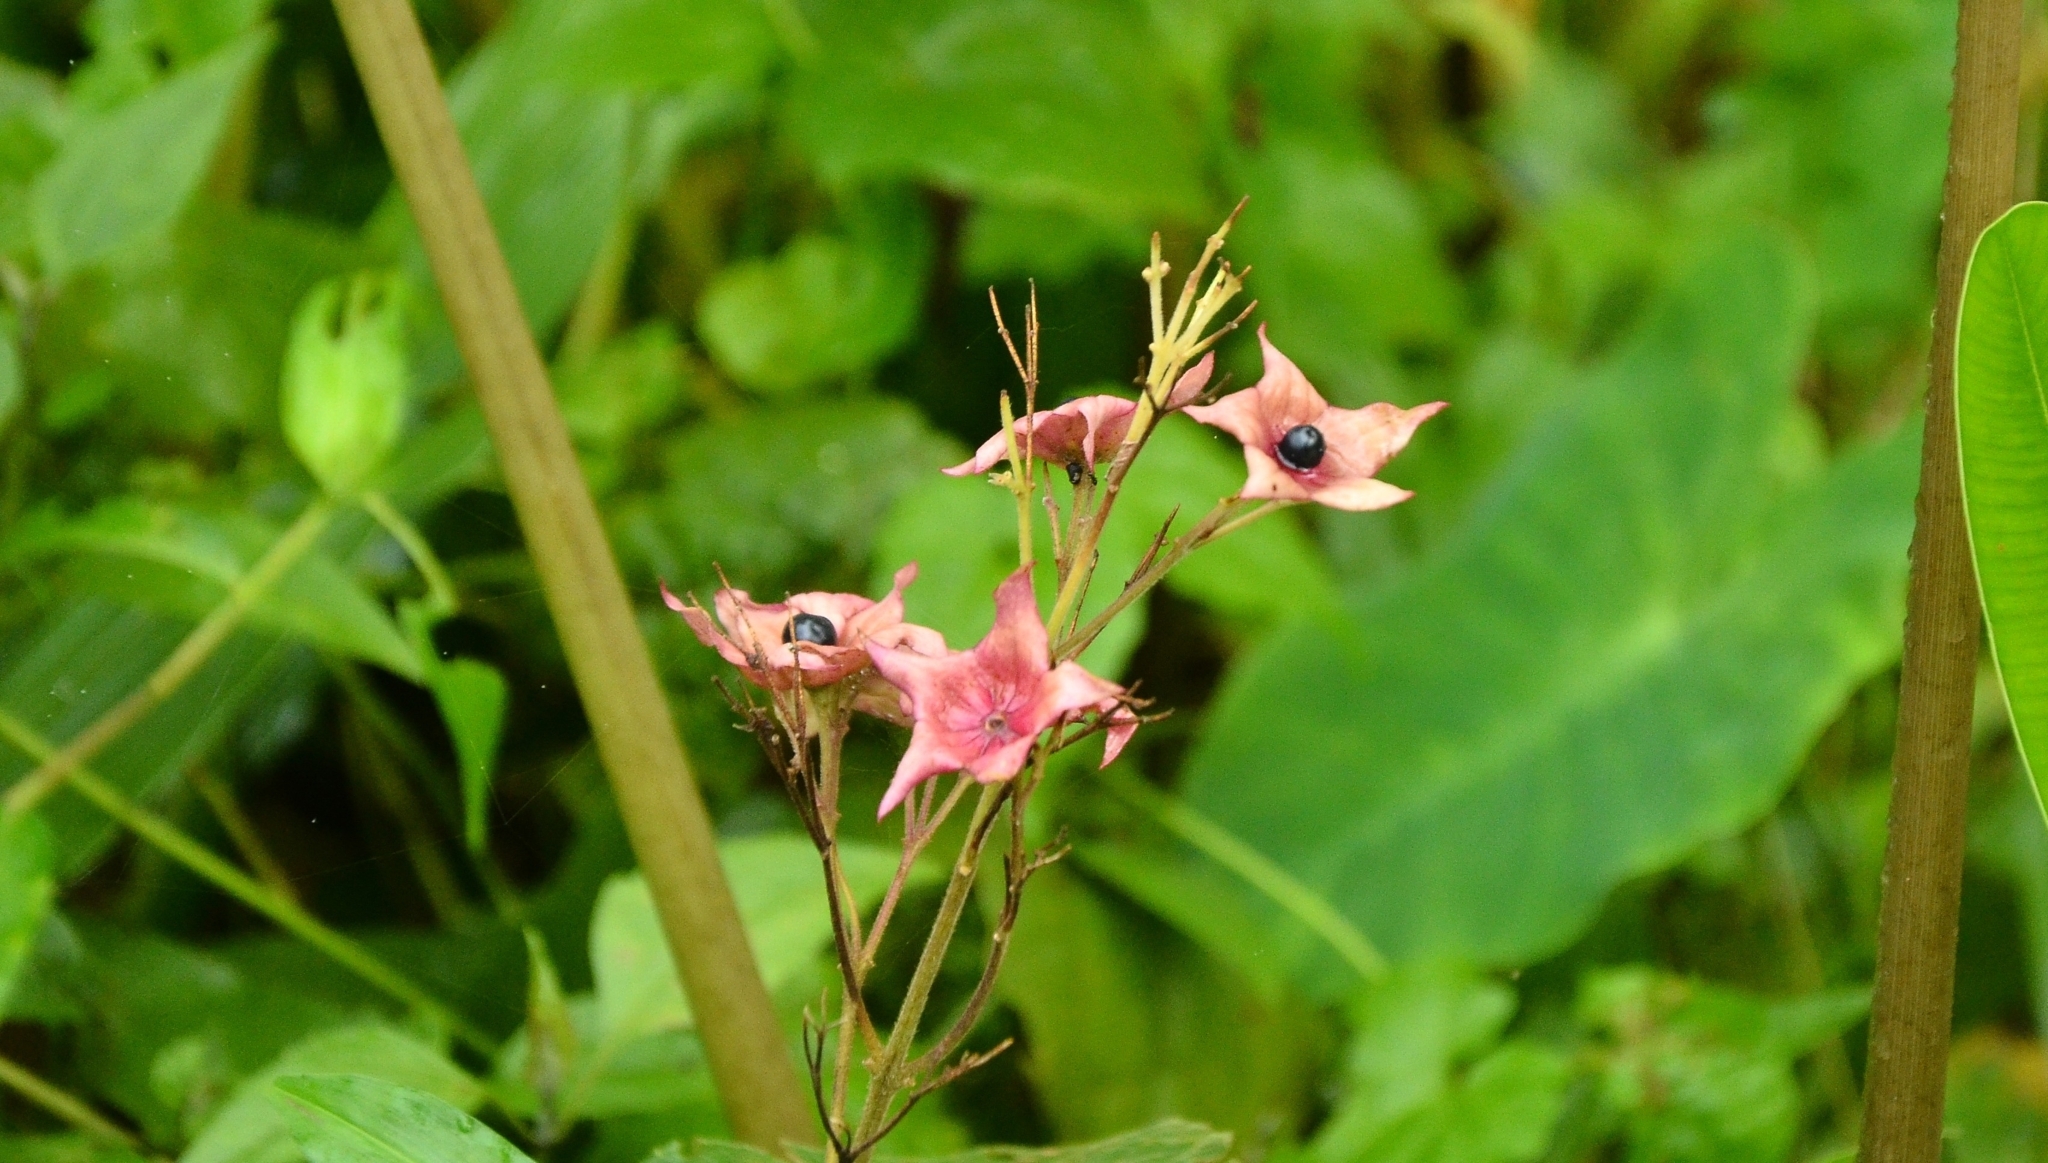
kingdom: Plantae
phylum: Tracheophyta
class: Magnoliopsida
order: Lamiales
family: Lamiaceae
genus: Clerodendrum
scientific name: Clerodendrum infortunatum
